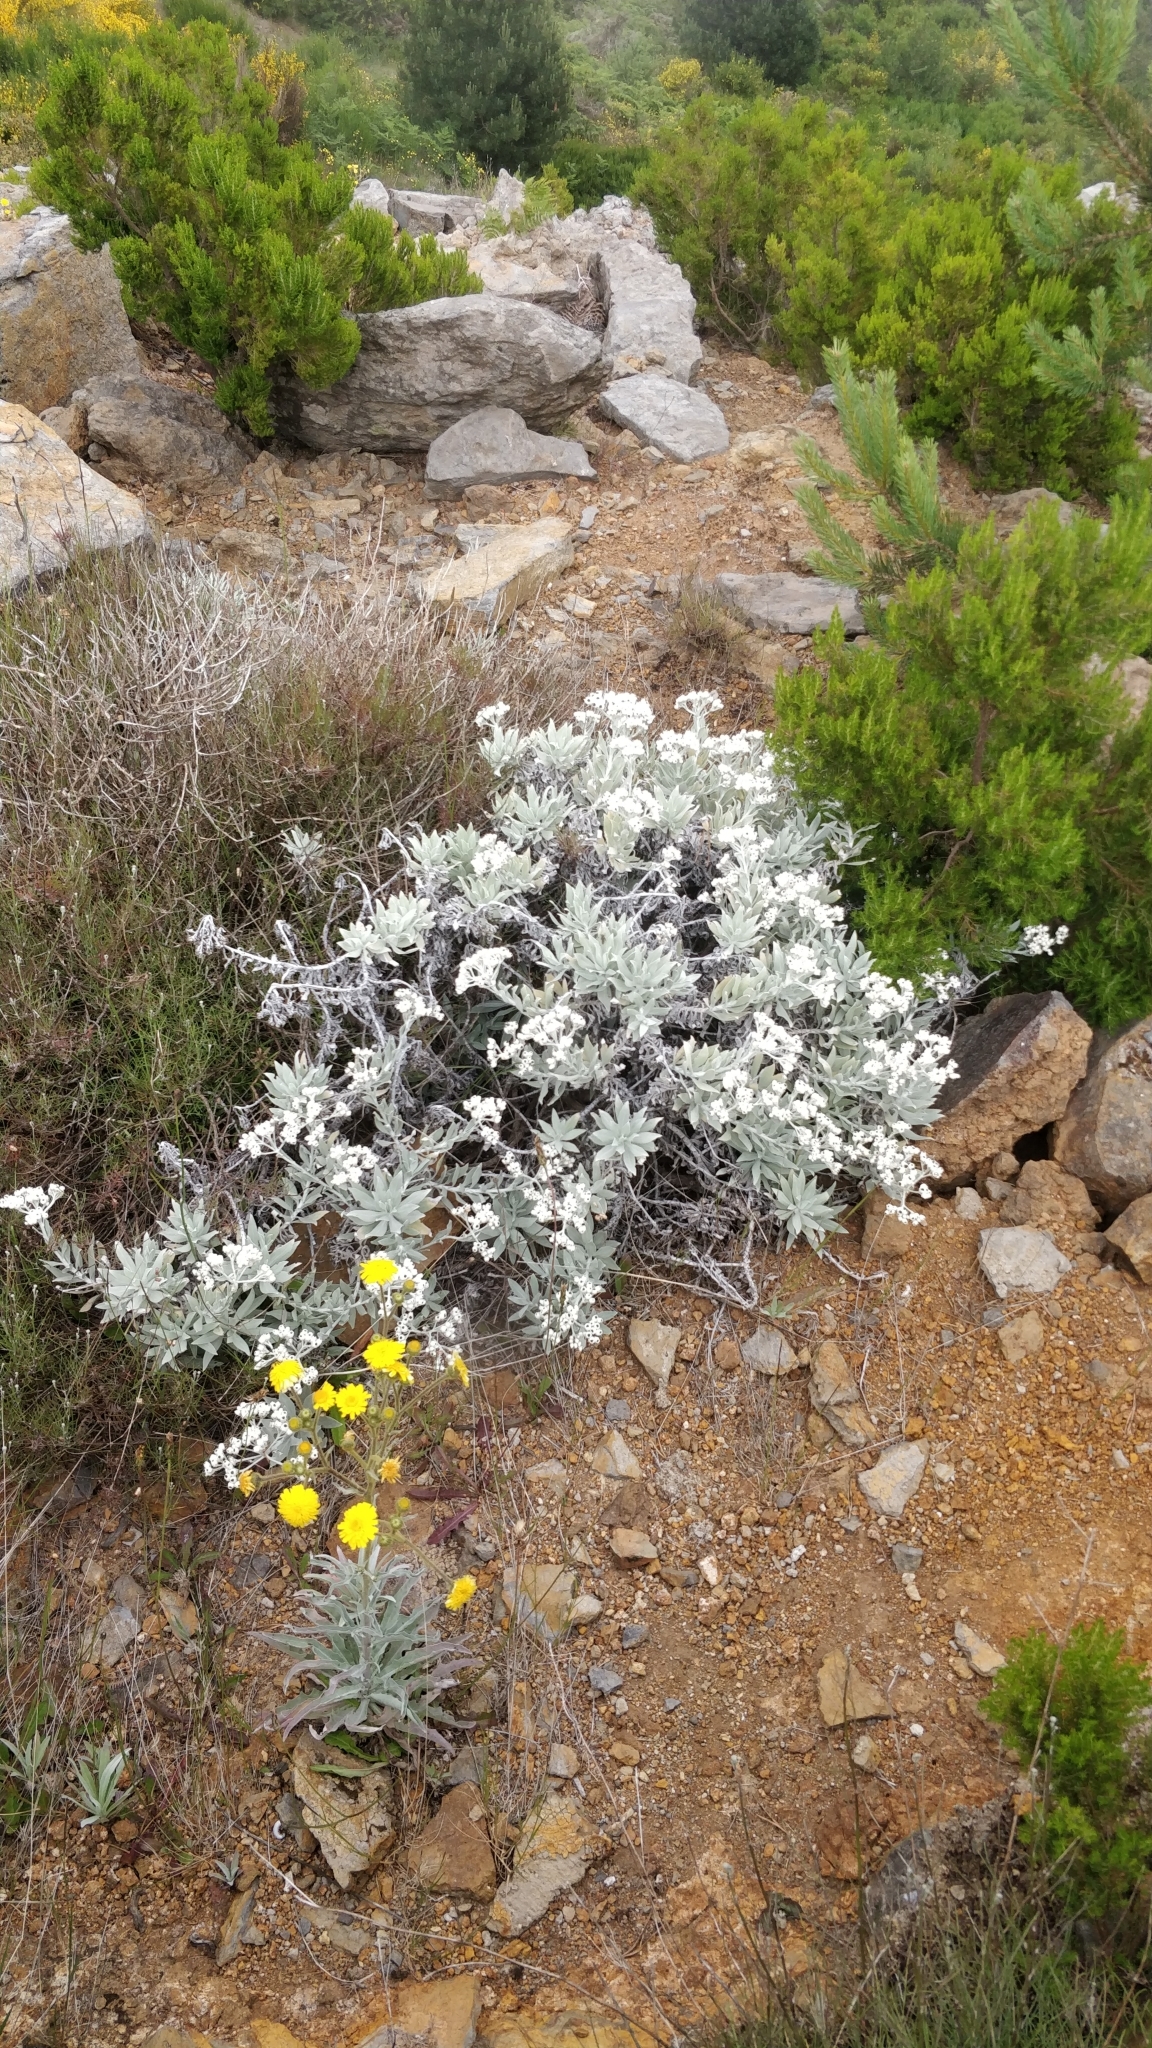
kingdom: Plantae
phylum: Tracheophyta
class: Magnoliopsida
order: Asterales
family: Asteraceae
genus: Helichrysum
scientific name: Helichrysum melaleucum
